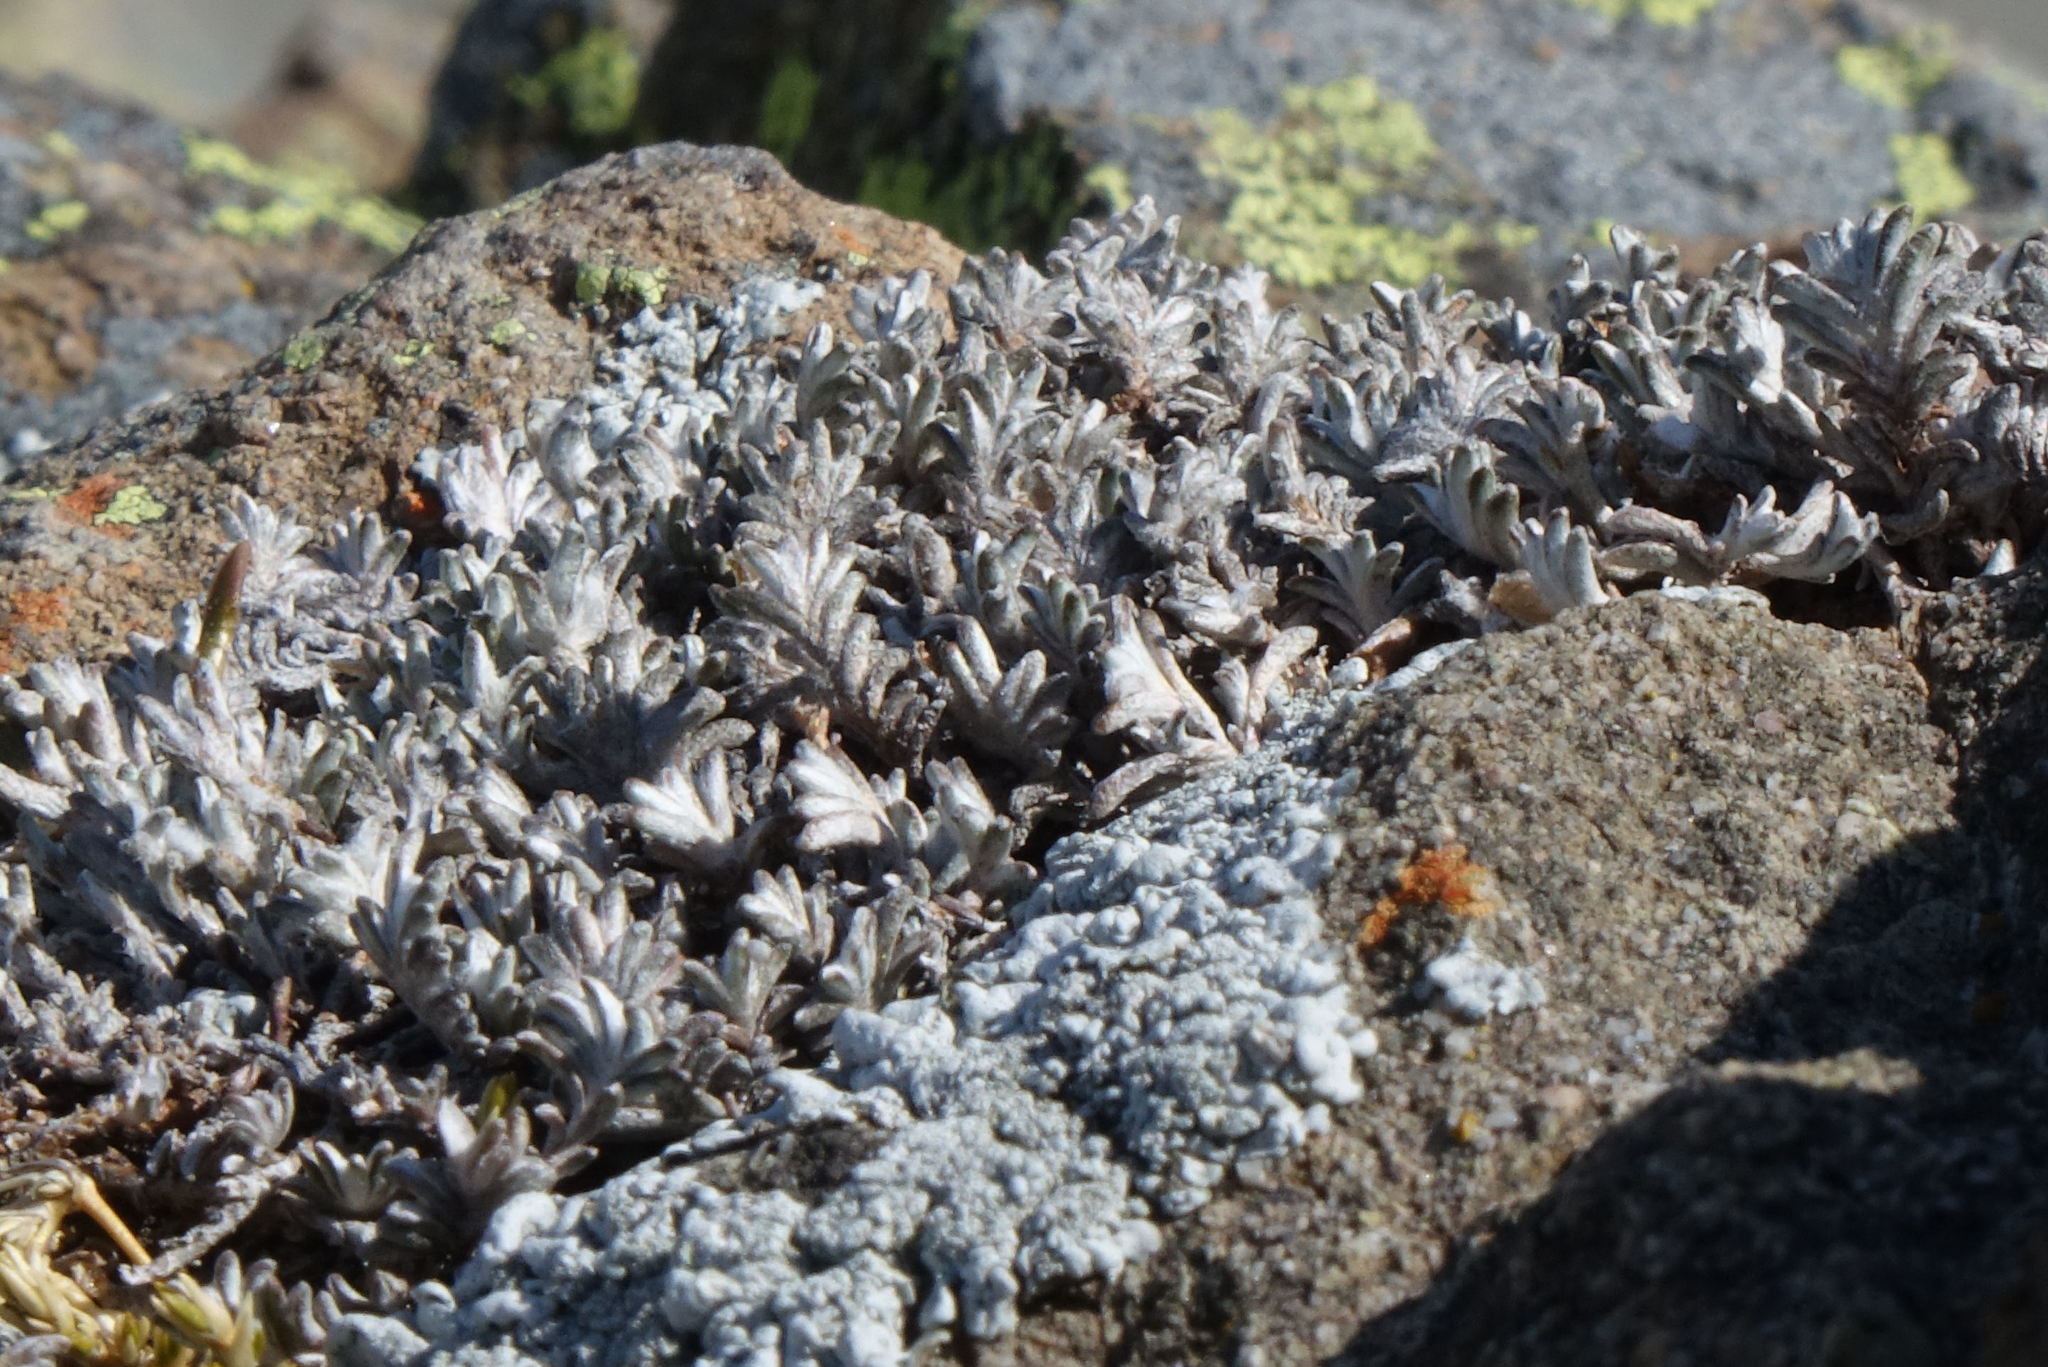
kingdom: Plantae
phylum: Tracheophyta
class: Magnoliopsida
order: Asterales
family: Asteraceae
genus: Raoulia
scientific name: Raoulia monroi
